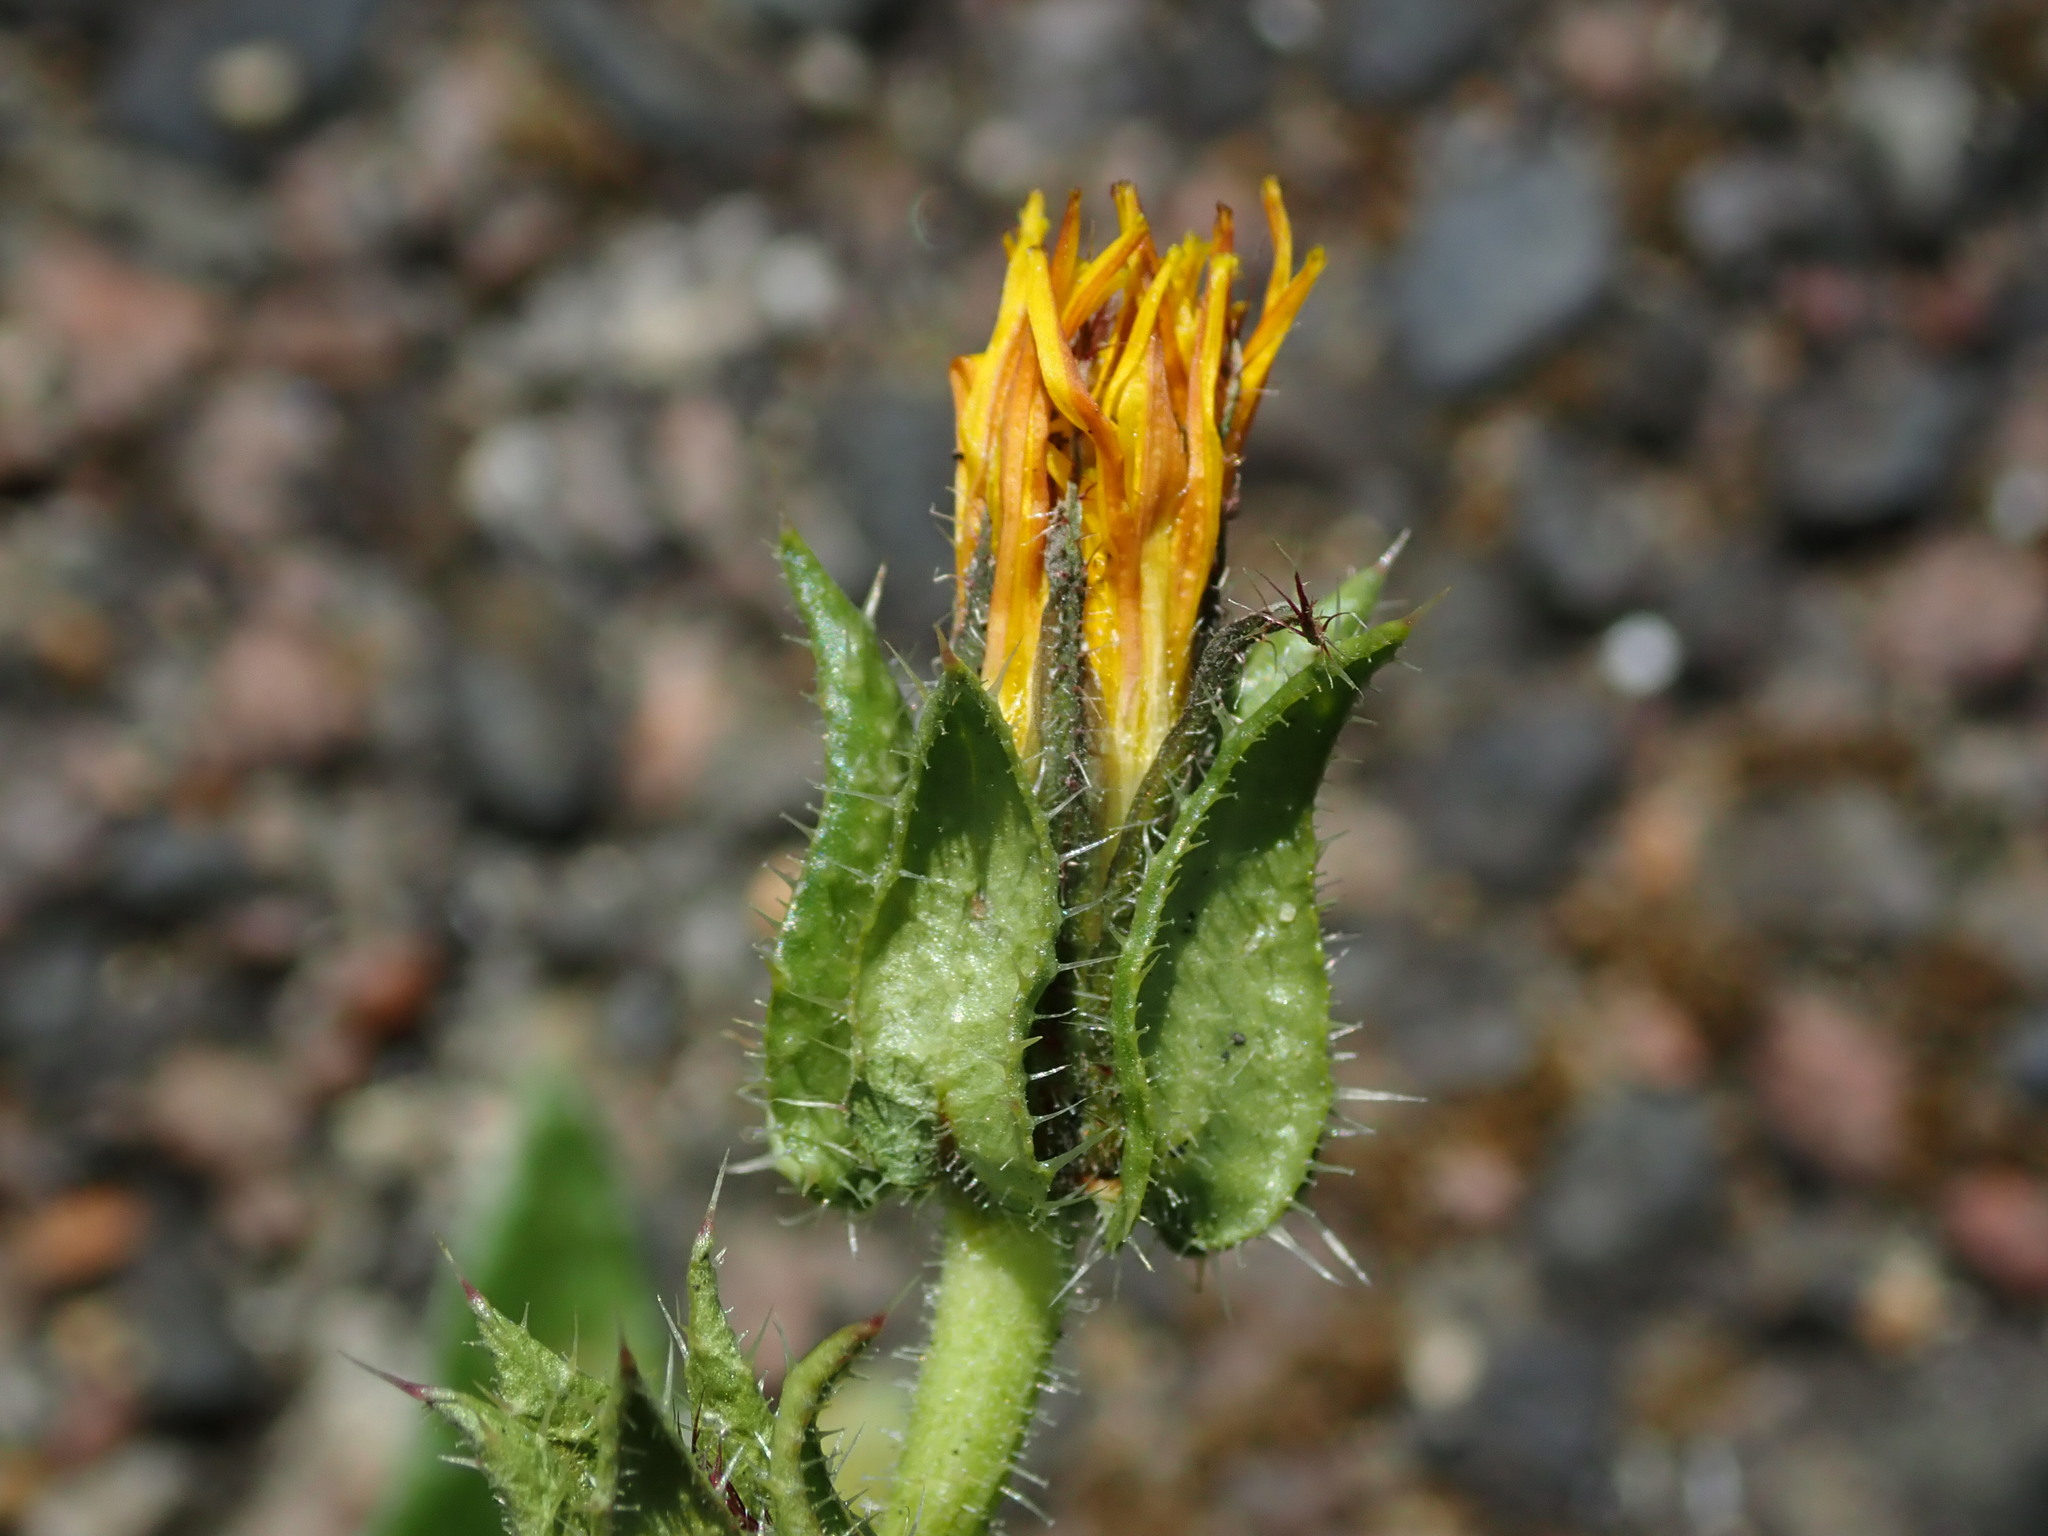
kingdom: Plantae
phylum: Tracheophyta
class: Magnoliopsida
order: Asterales
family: Asteraceae
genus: Helminthotheca
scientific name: Helminthotheca echioides
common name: Ox-tongue
